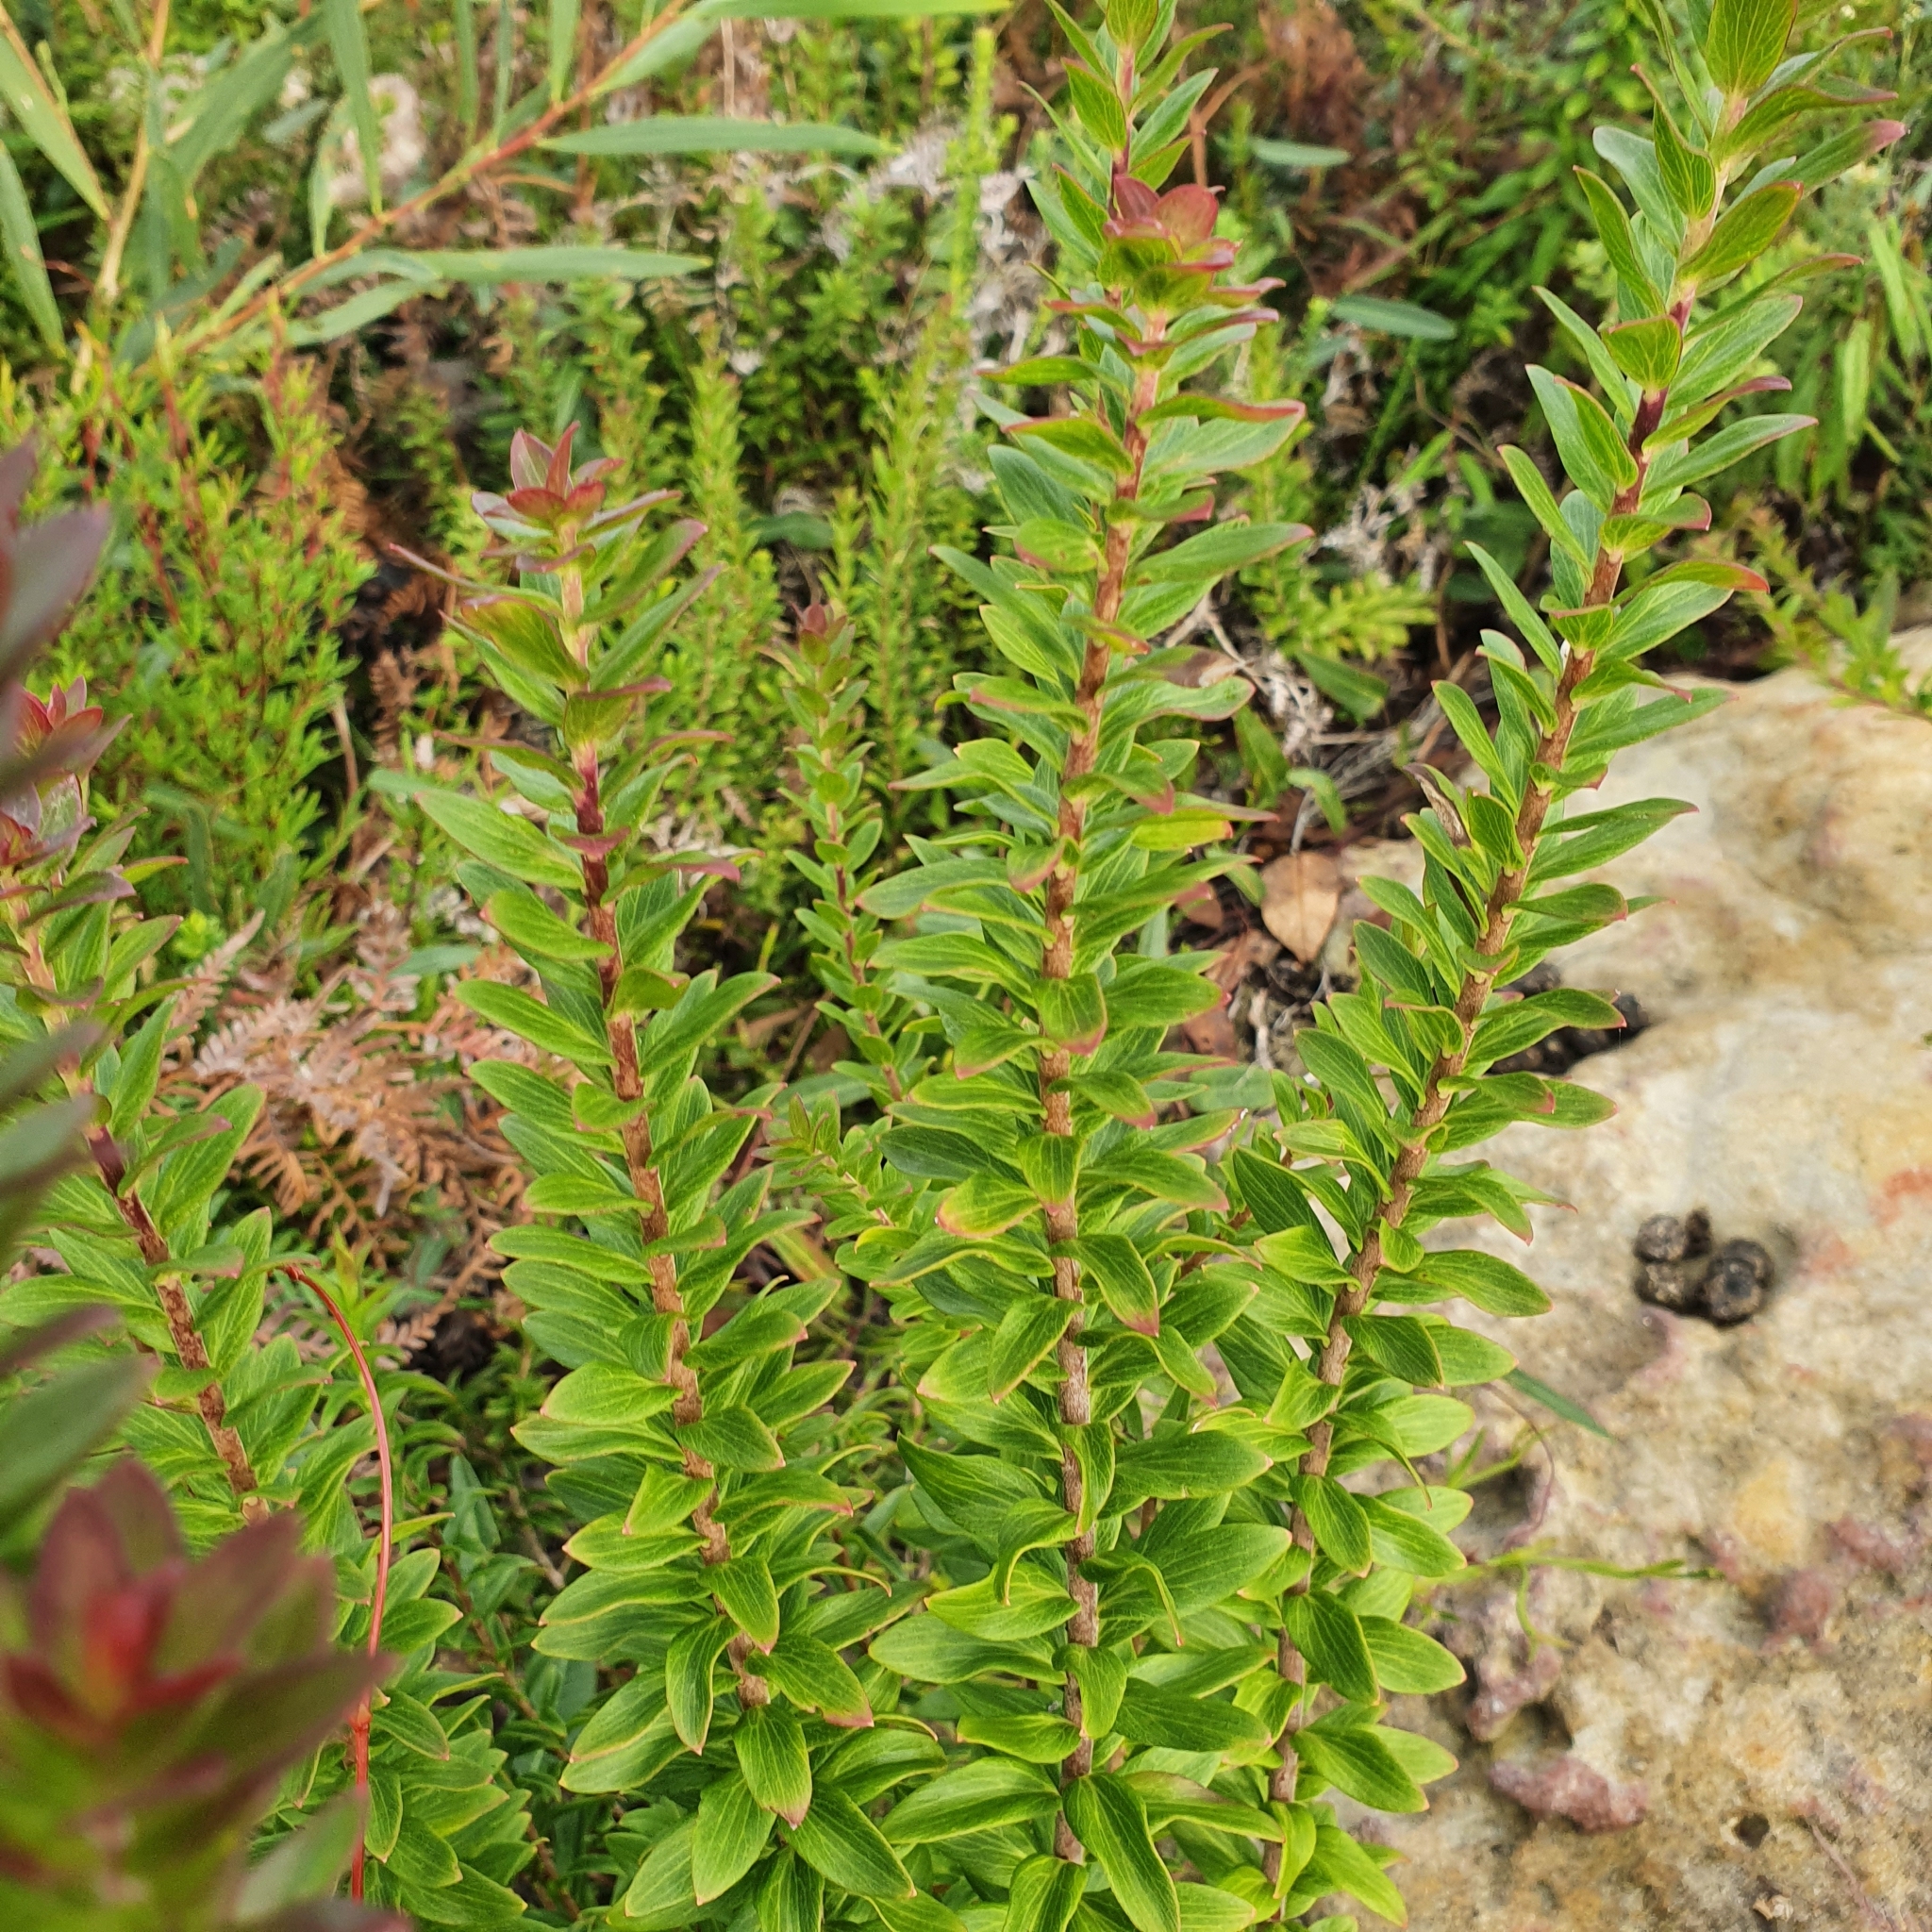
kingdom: Plantae
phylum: Tracheophyta
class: Magnoliopsida
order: Apiales
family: Apiaceae
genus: Platysace
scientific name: Platysace lanceolata
